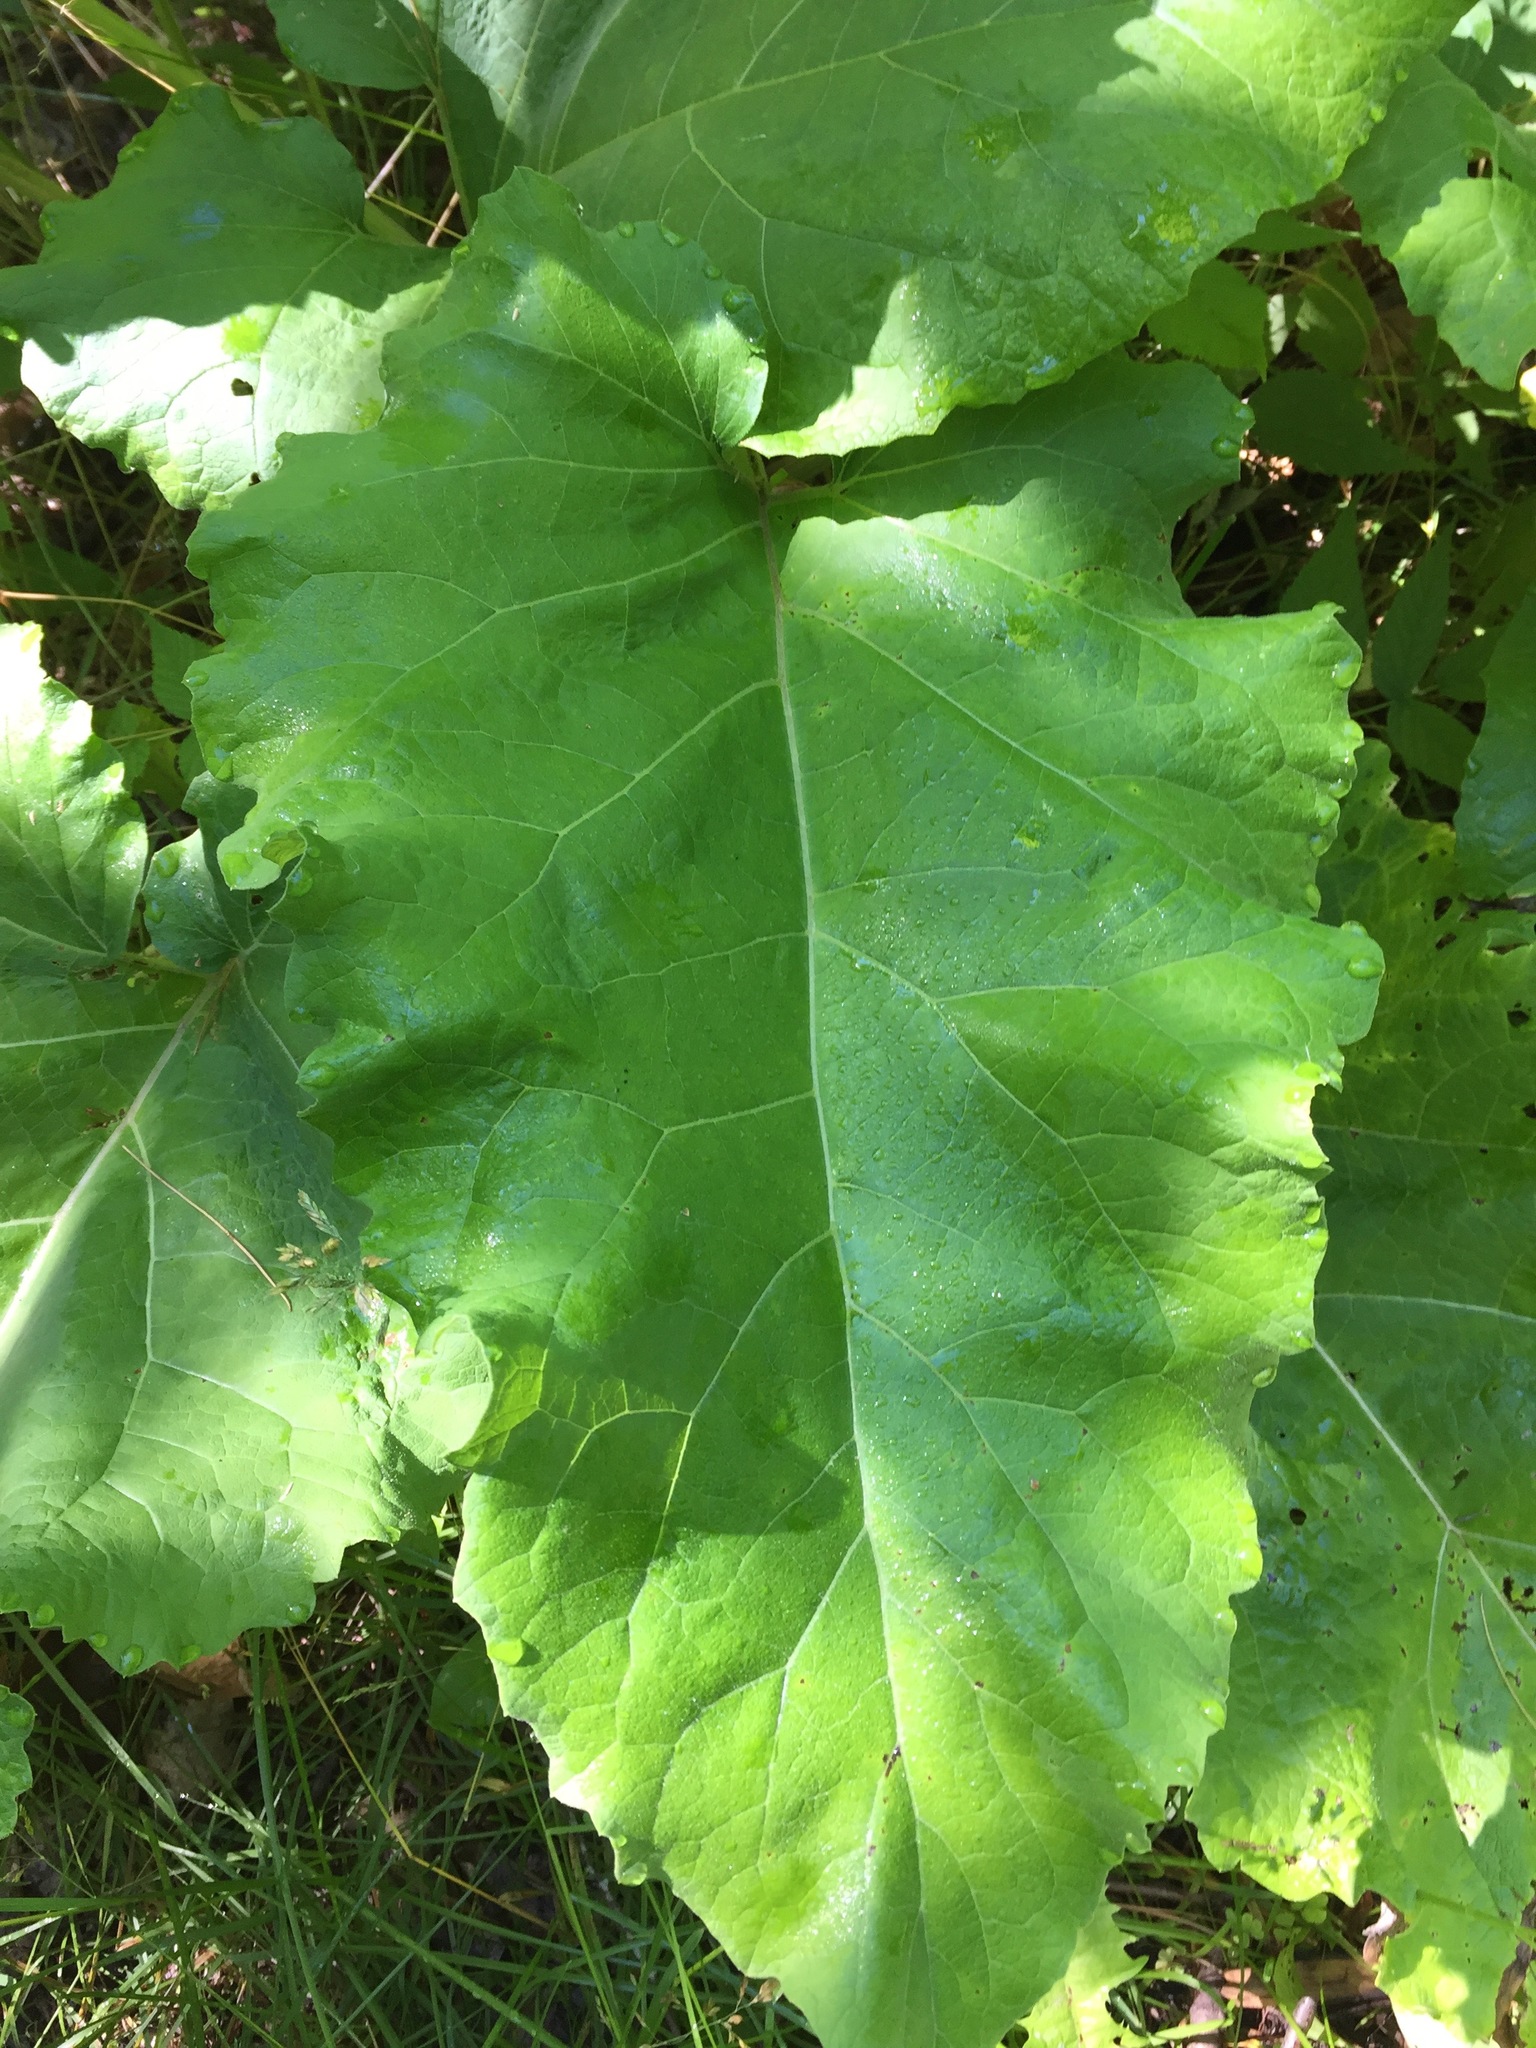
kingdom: Plantae
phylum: Tracheophyta
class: Magnoliopsida
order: Asterales
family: Asteraceae
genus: Arctium
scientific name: Arctium
